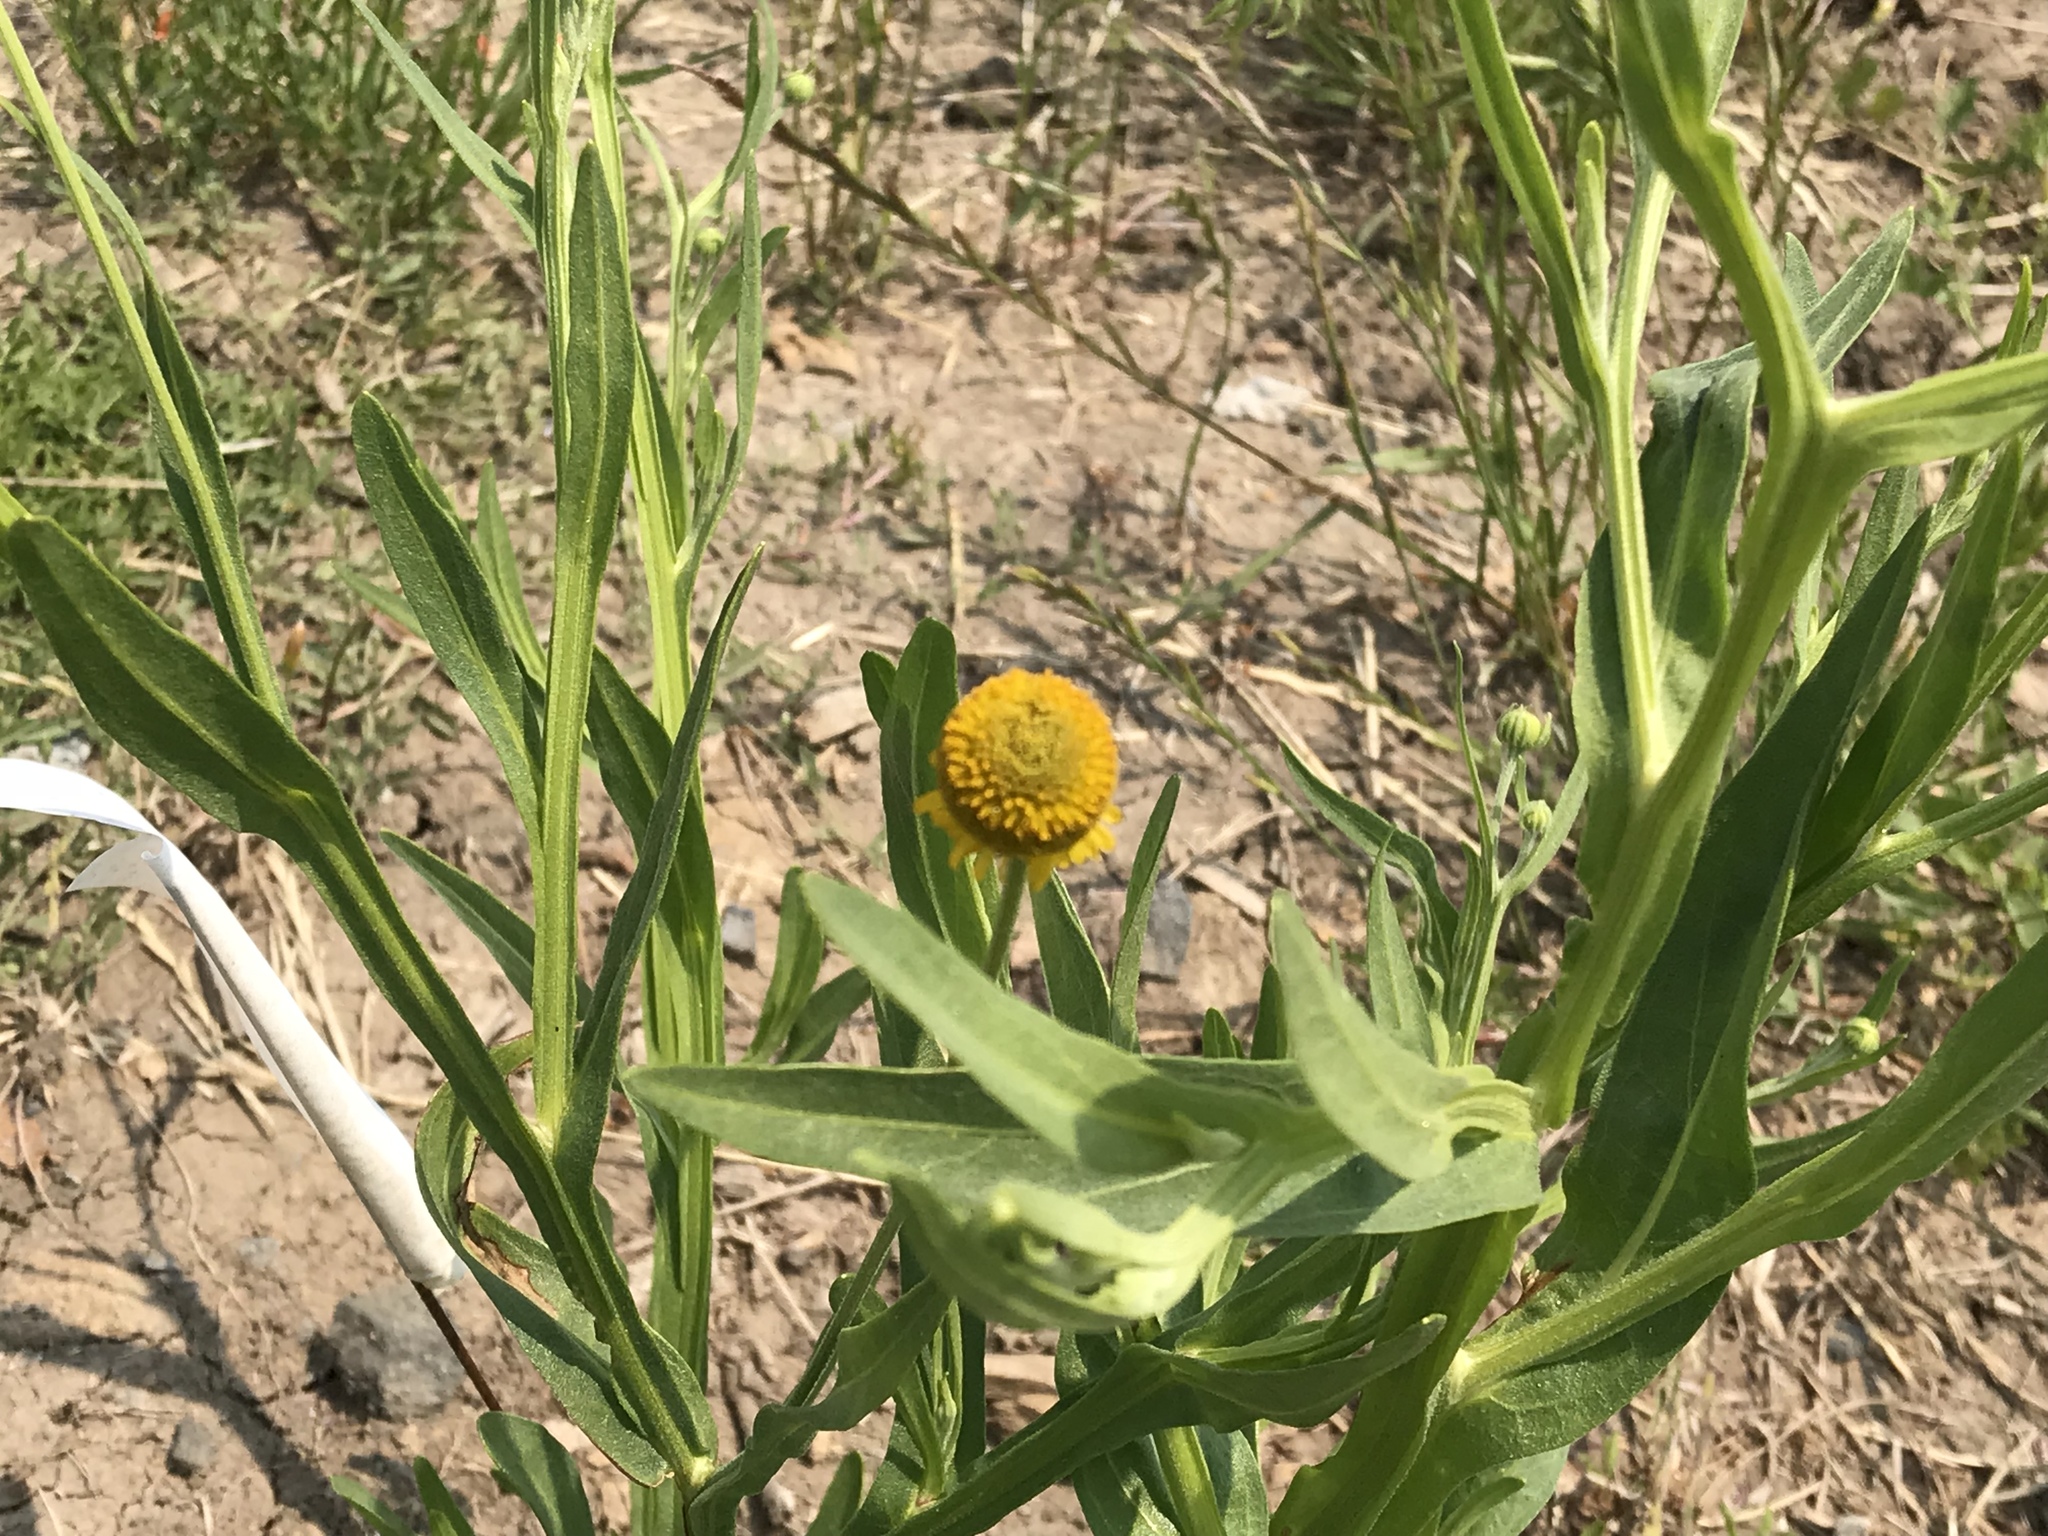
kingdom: Plantae
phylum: Tracheophyta
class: Magnoliopsida
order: Asterales
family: Asteraceae
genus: Helenium
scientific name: Helenium puberulum
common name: Sneezewort
